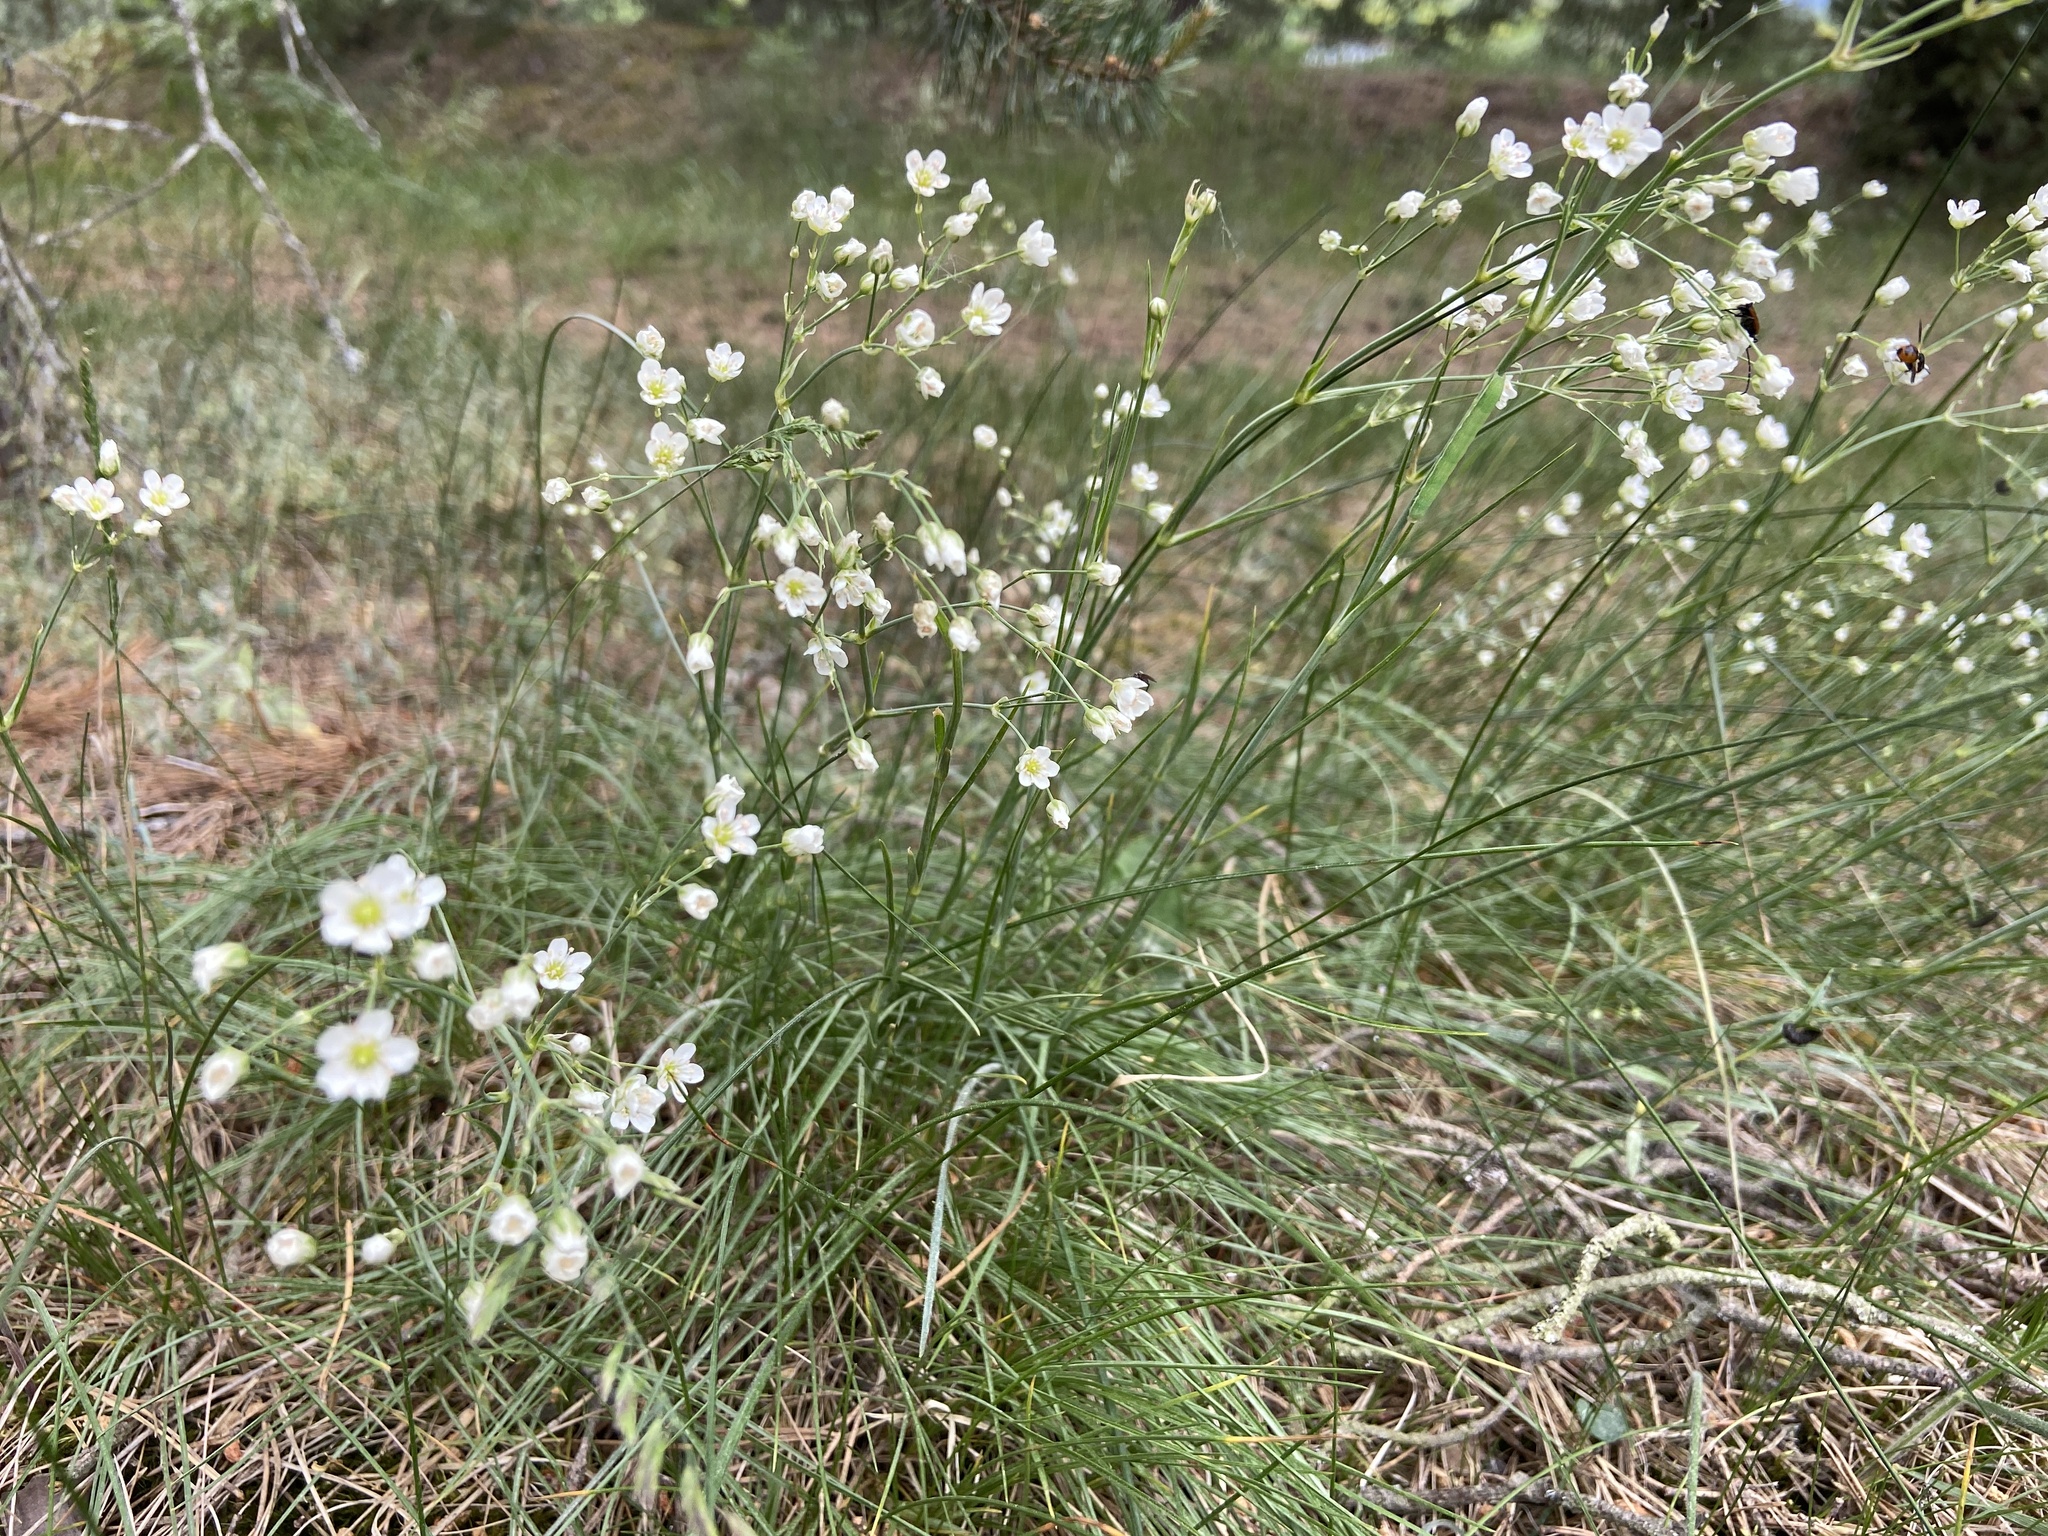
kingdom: Plantae
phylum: Tracheophyta
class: Magnoliopsida
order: Caryophyllales
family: Caryophyllaceae
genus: Eremogone
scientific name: Eremogone saxatilis
